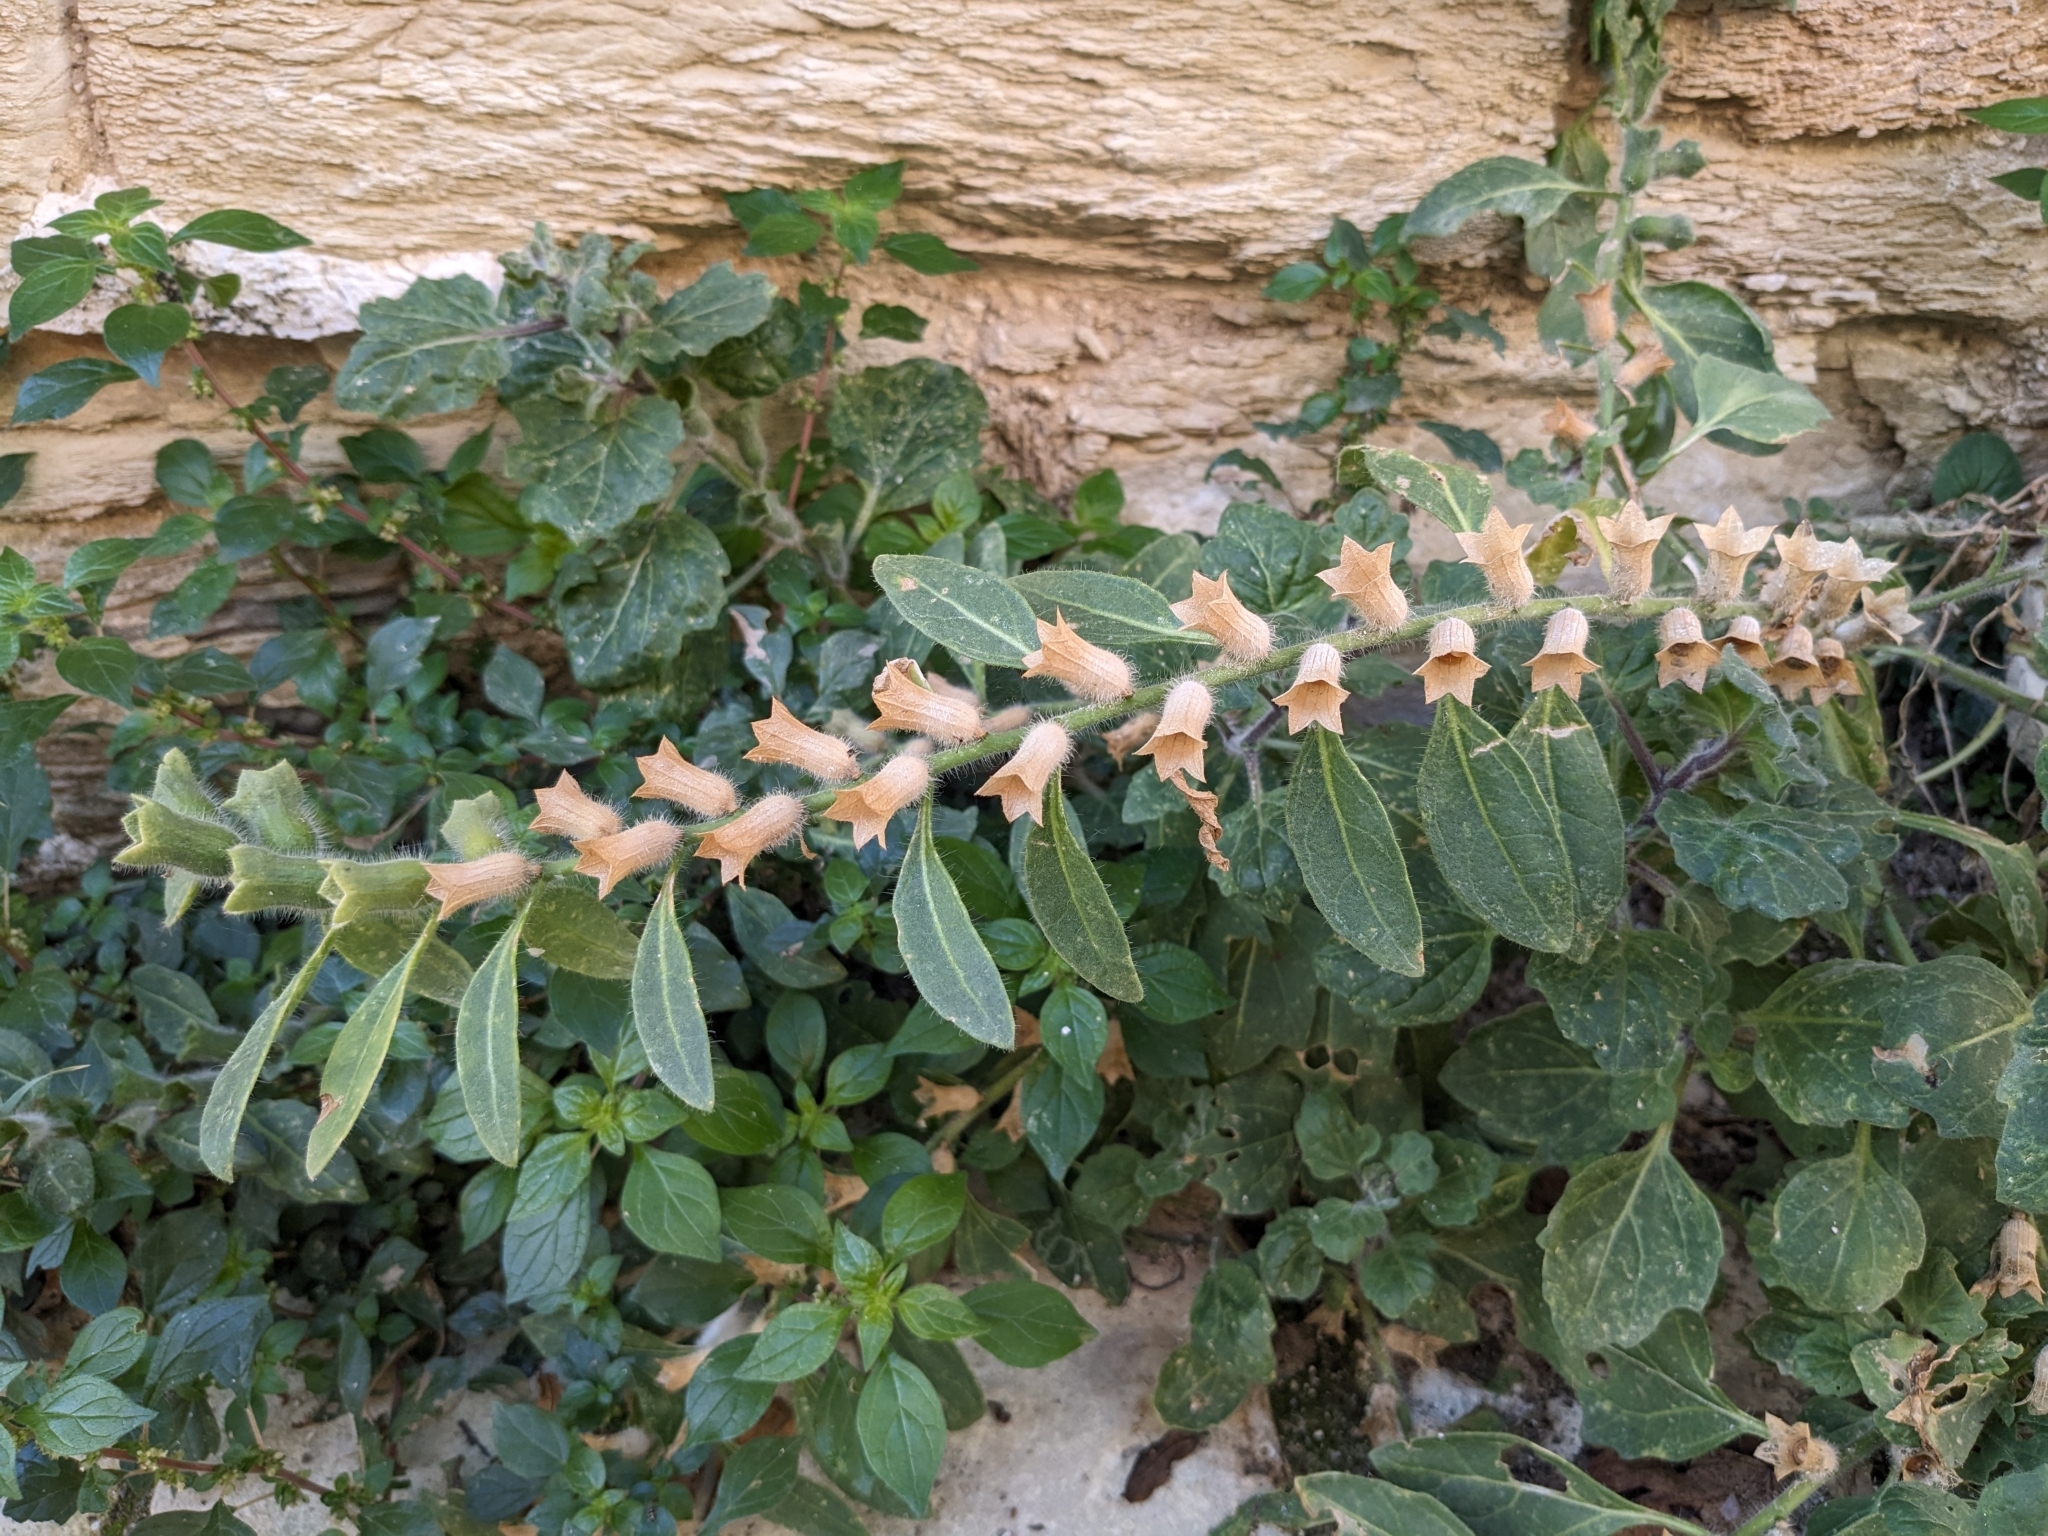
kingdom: Plantae
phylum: Tracheophyta
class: Magnoliopsida
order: Solanales
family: Solanaceae
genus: Hyoscyamus
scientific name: Hyoscyamus albus
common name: White henbane
